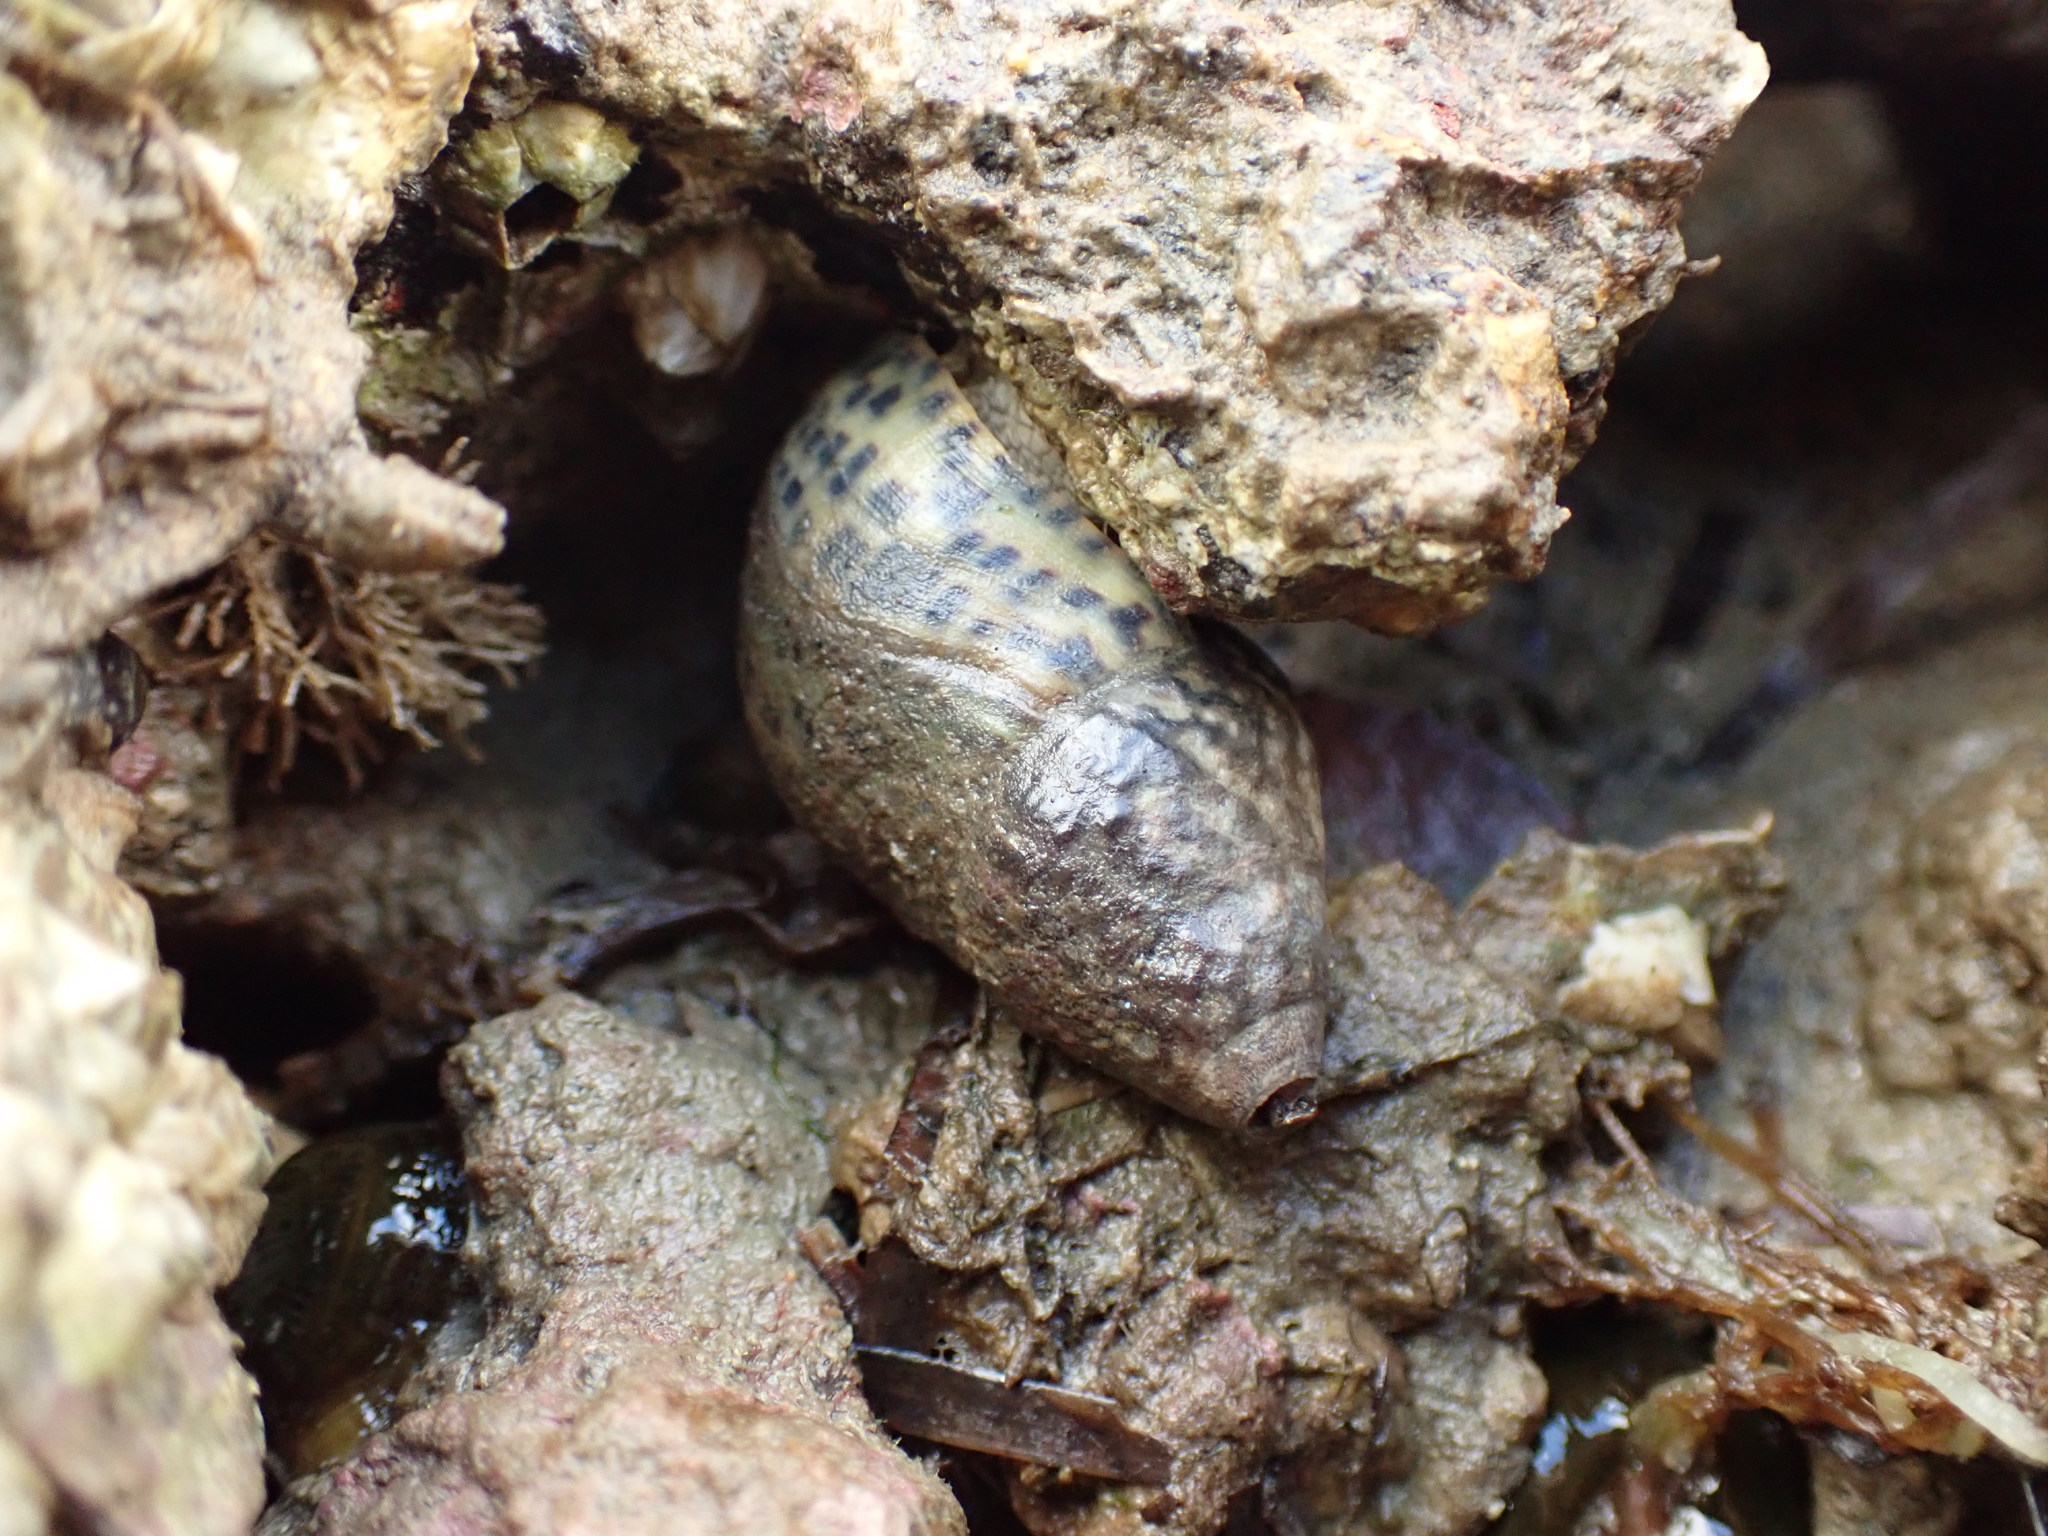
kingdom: Animalia
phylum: Mollusca
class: Gastropoda
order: Neogastropoda
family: Cominellidae
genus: Cominella
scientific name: Cominella maculosa
